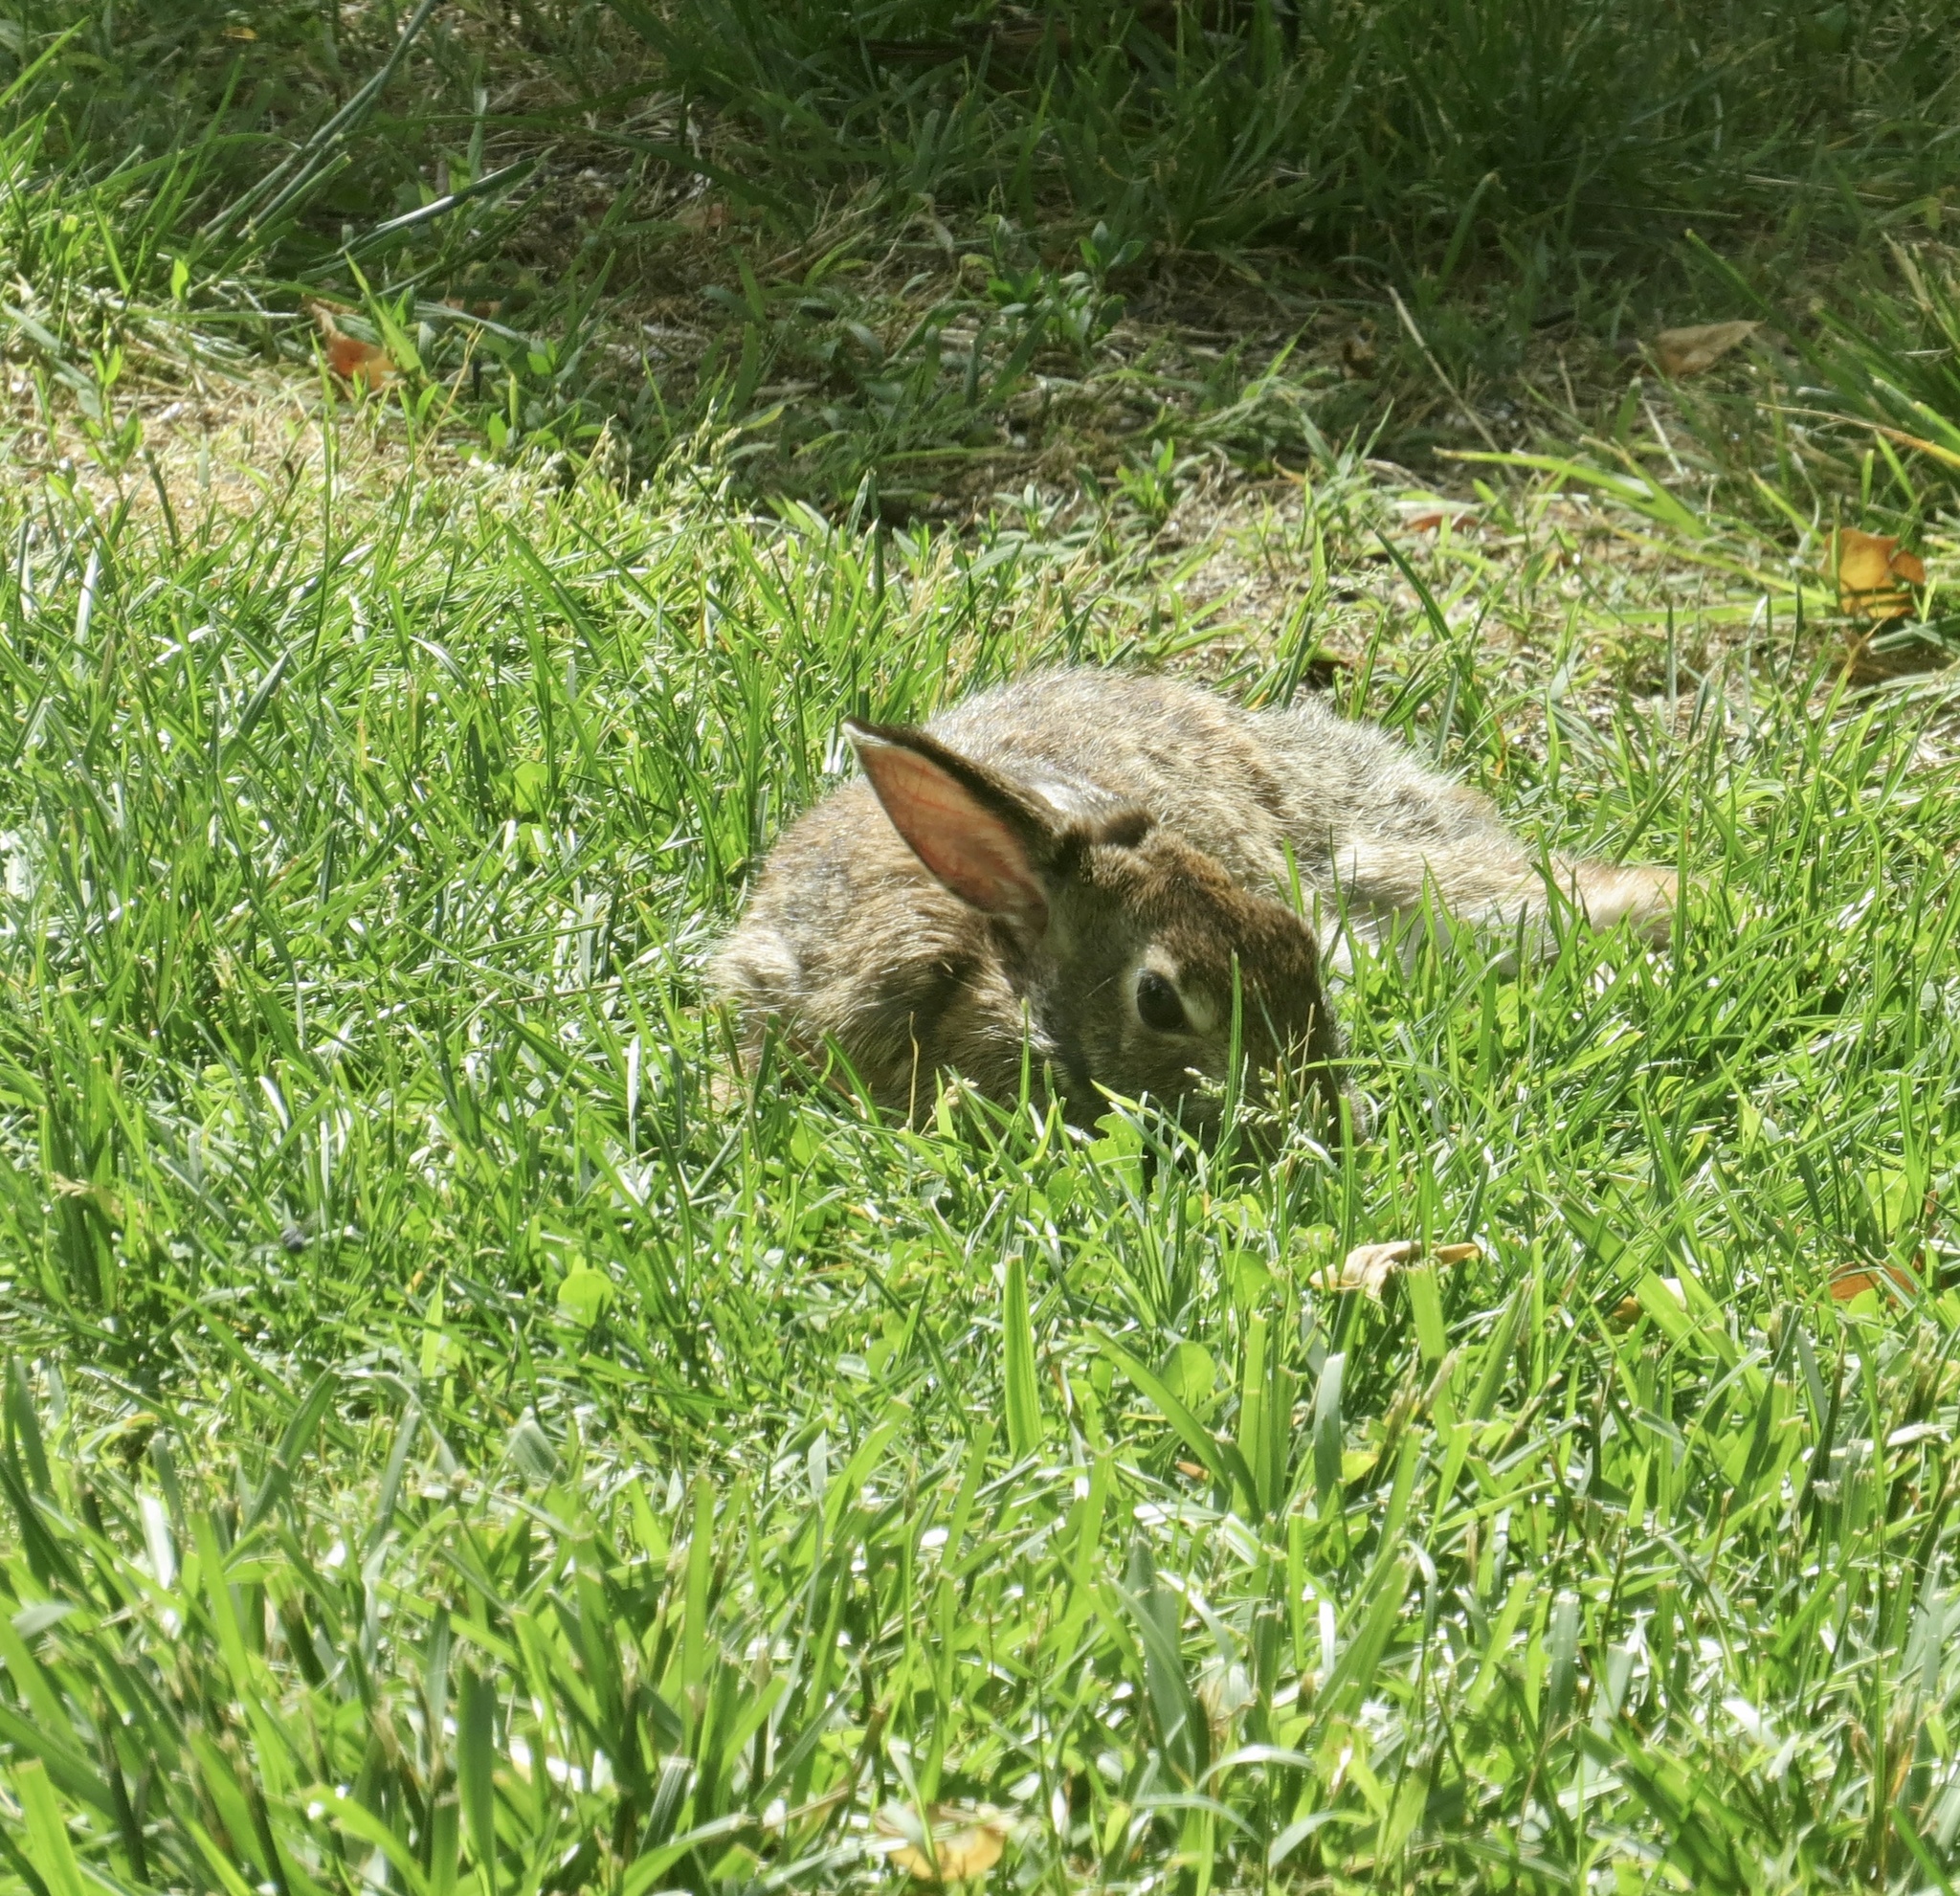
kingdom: Animalia
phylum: Chordata
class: Mammalia
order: Lagomorpha
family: Leporidae
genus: Sylvilagus
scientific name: Sylvilagus floridanus
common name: Eastern cottontail
